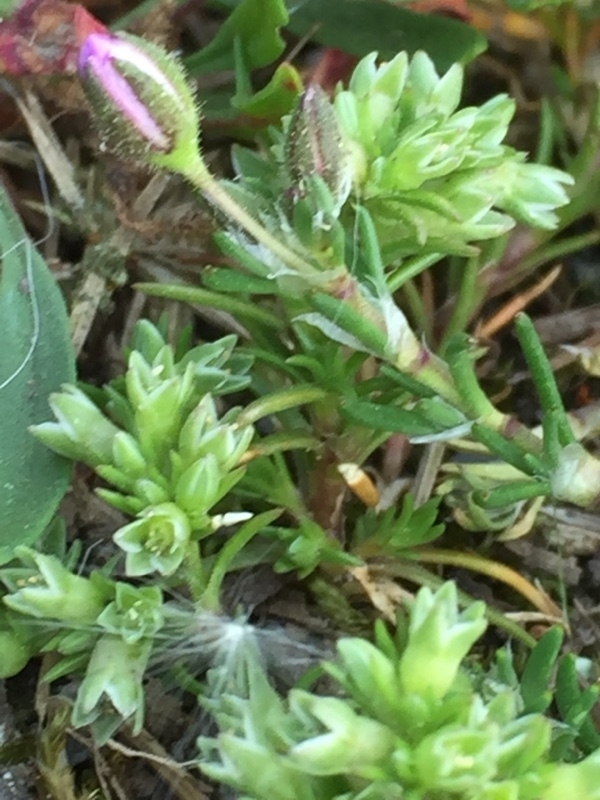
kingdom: Plantae
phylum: Tracheophyta
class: Magnoliopsida
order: Caryophyllales
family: Caryophyllaceae
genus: Scleranthus
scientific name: Scleranthus annuus
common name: Annual knawel
